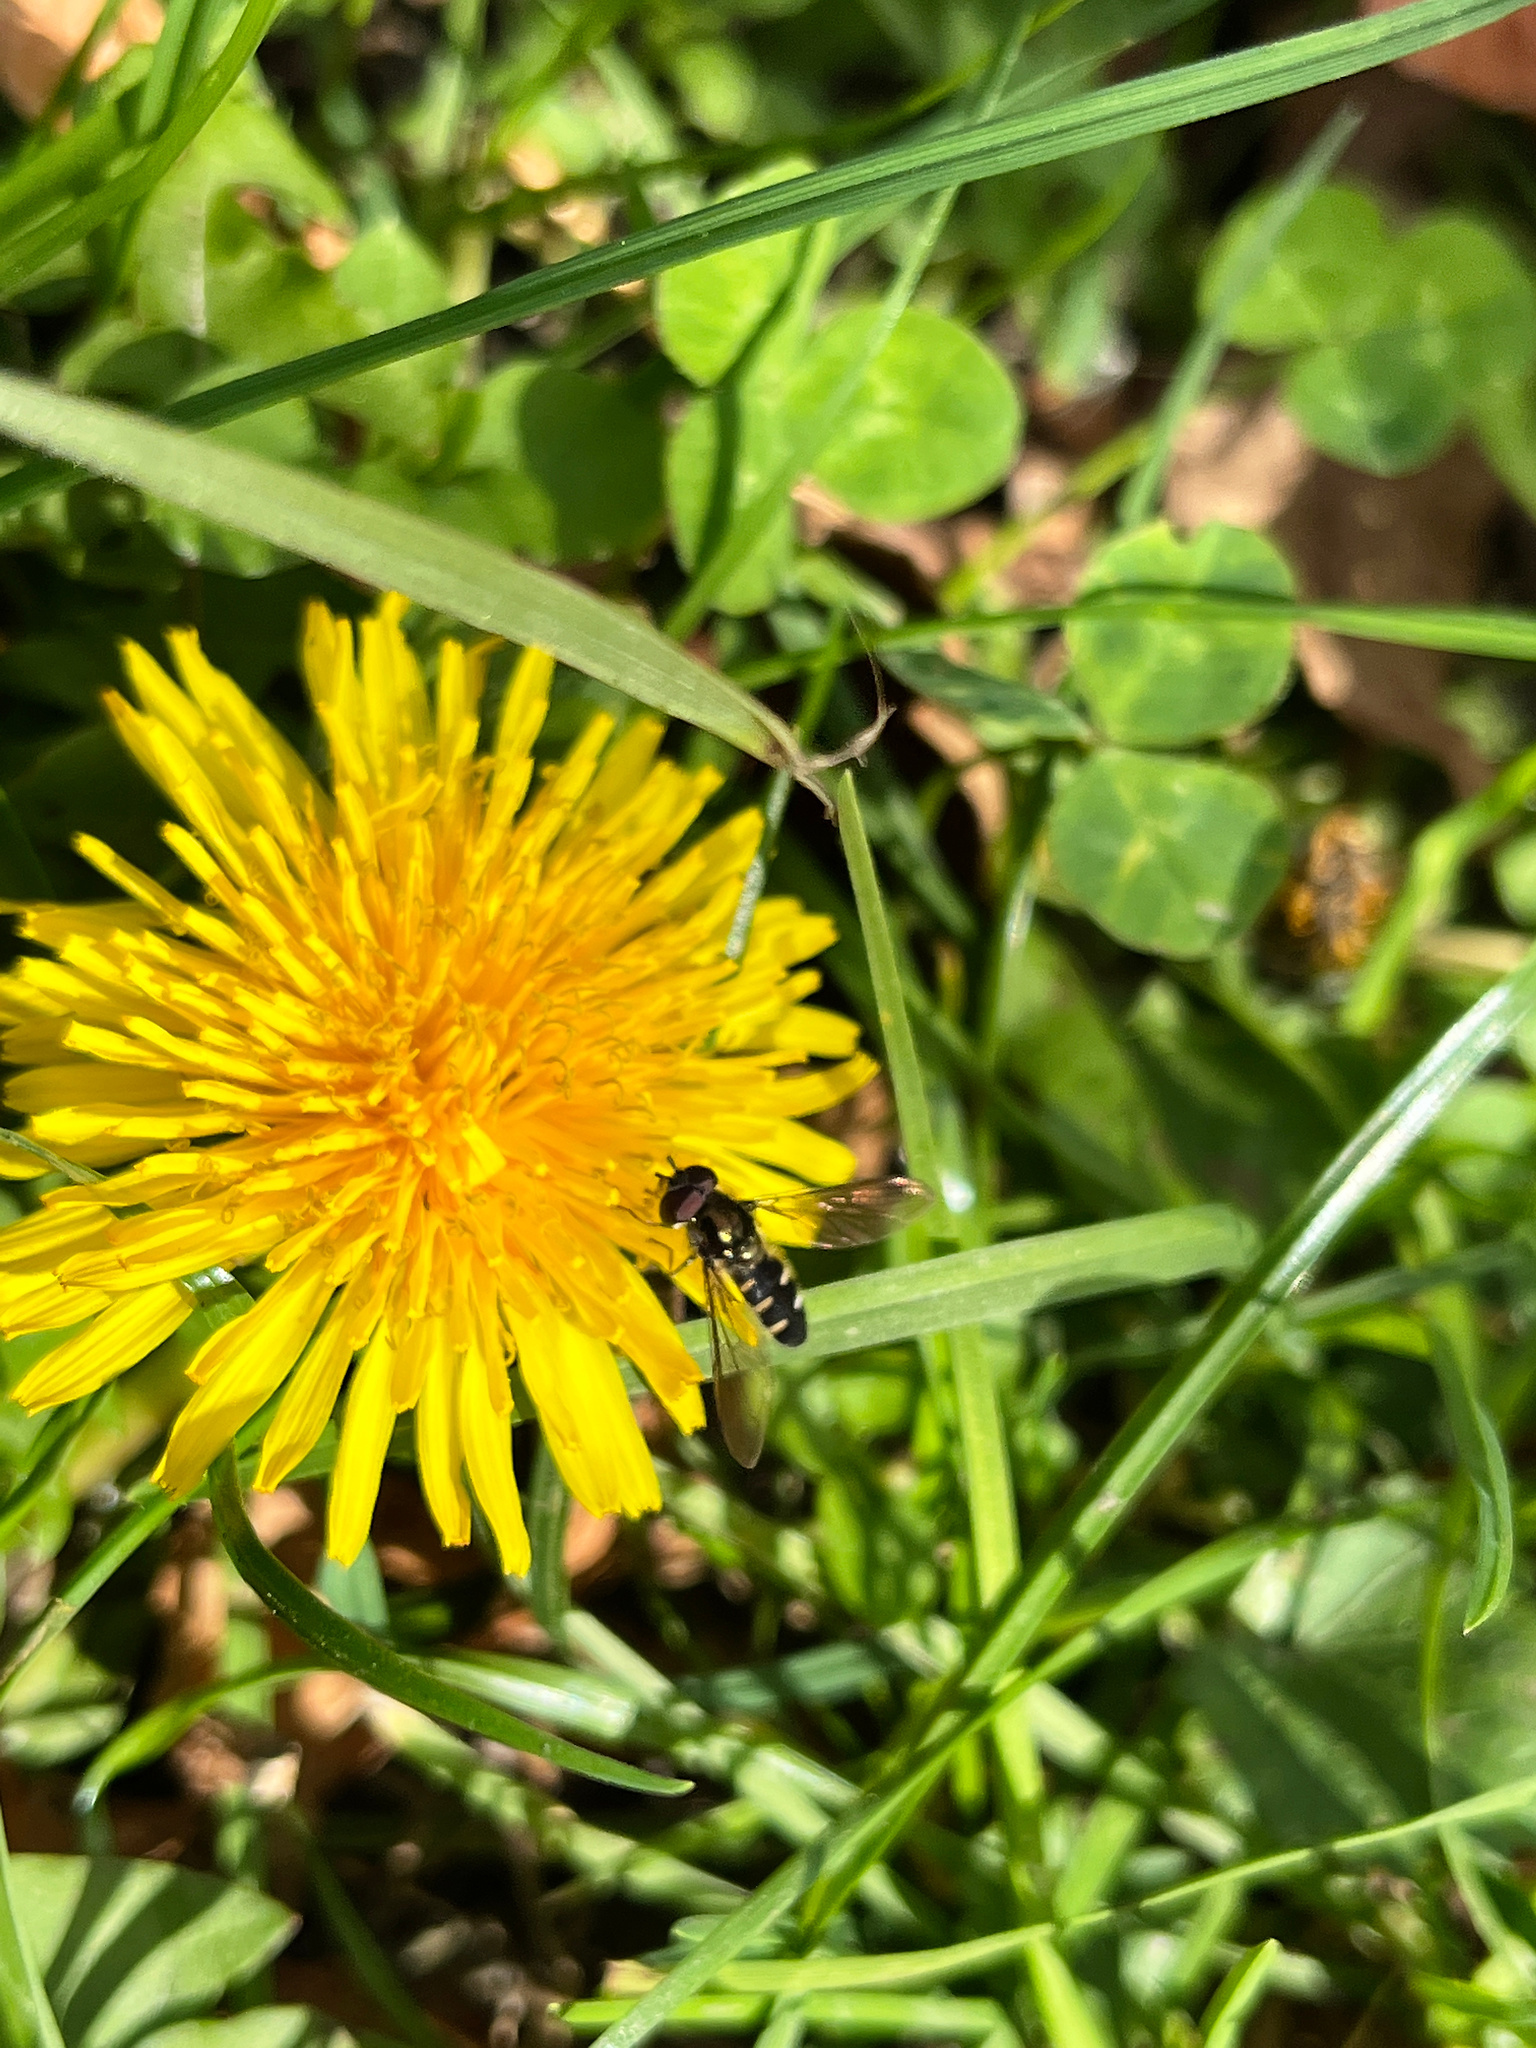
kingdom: Animalia
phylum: Arthropoda
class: Insecta
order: Diptera
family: Syrphidae
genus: Melangyna
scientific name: Melangyna novaezelandiae
